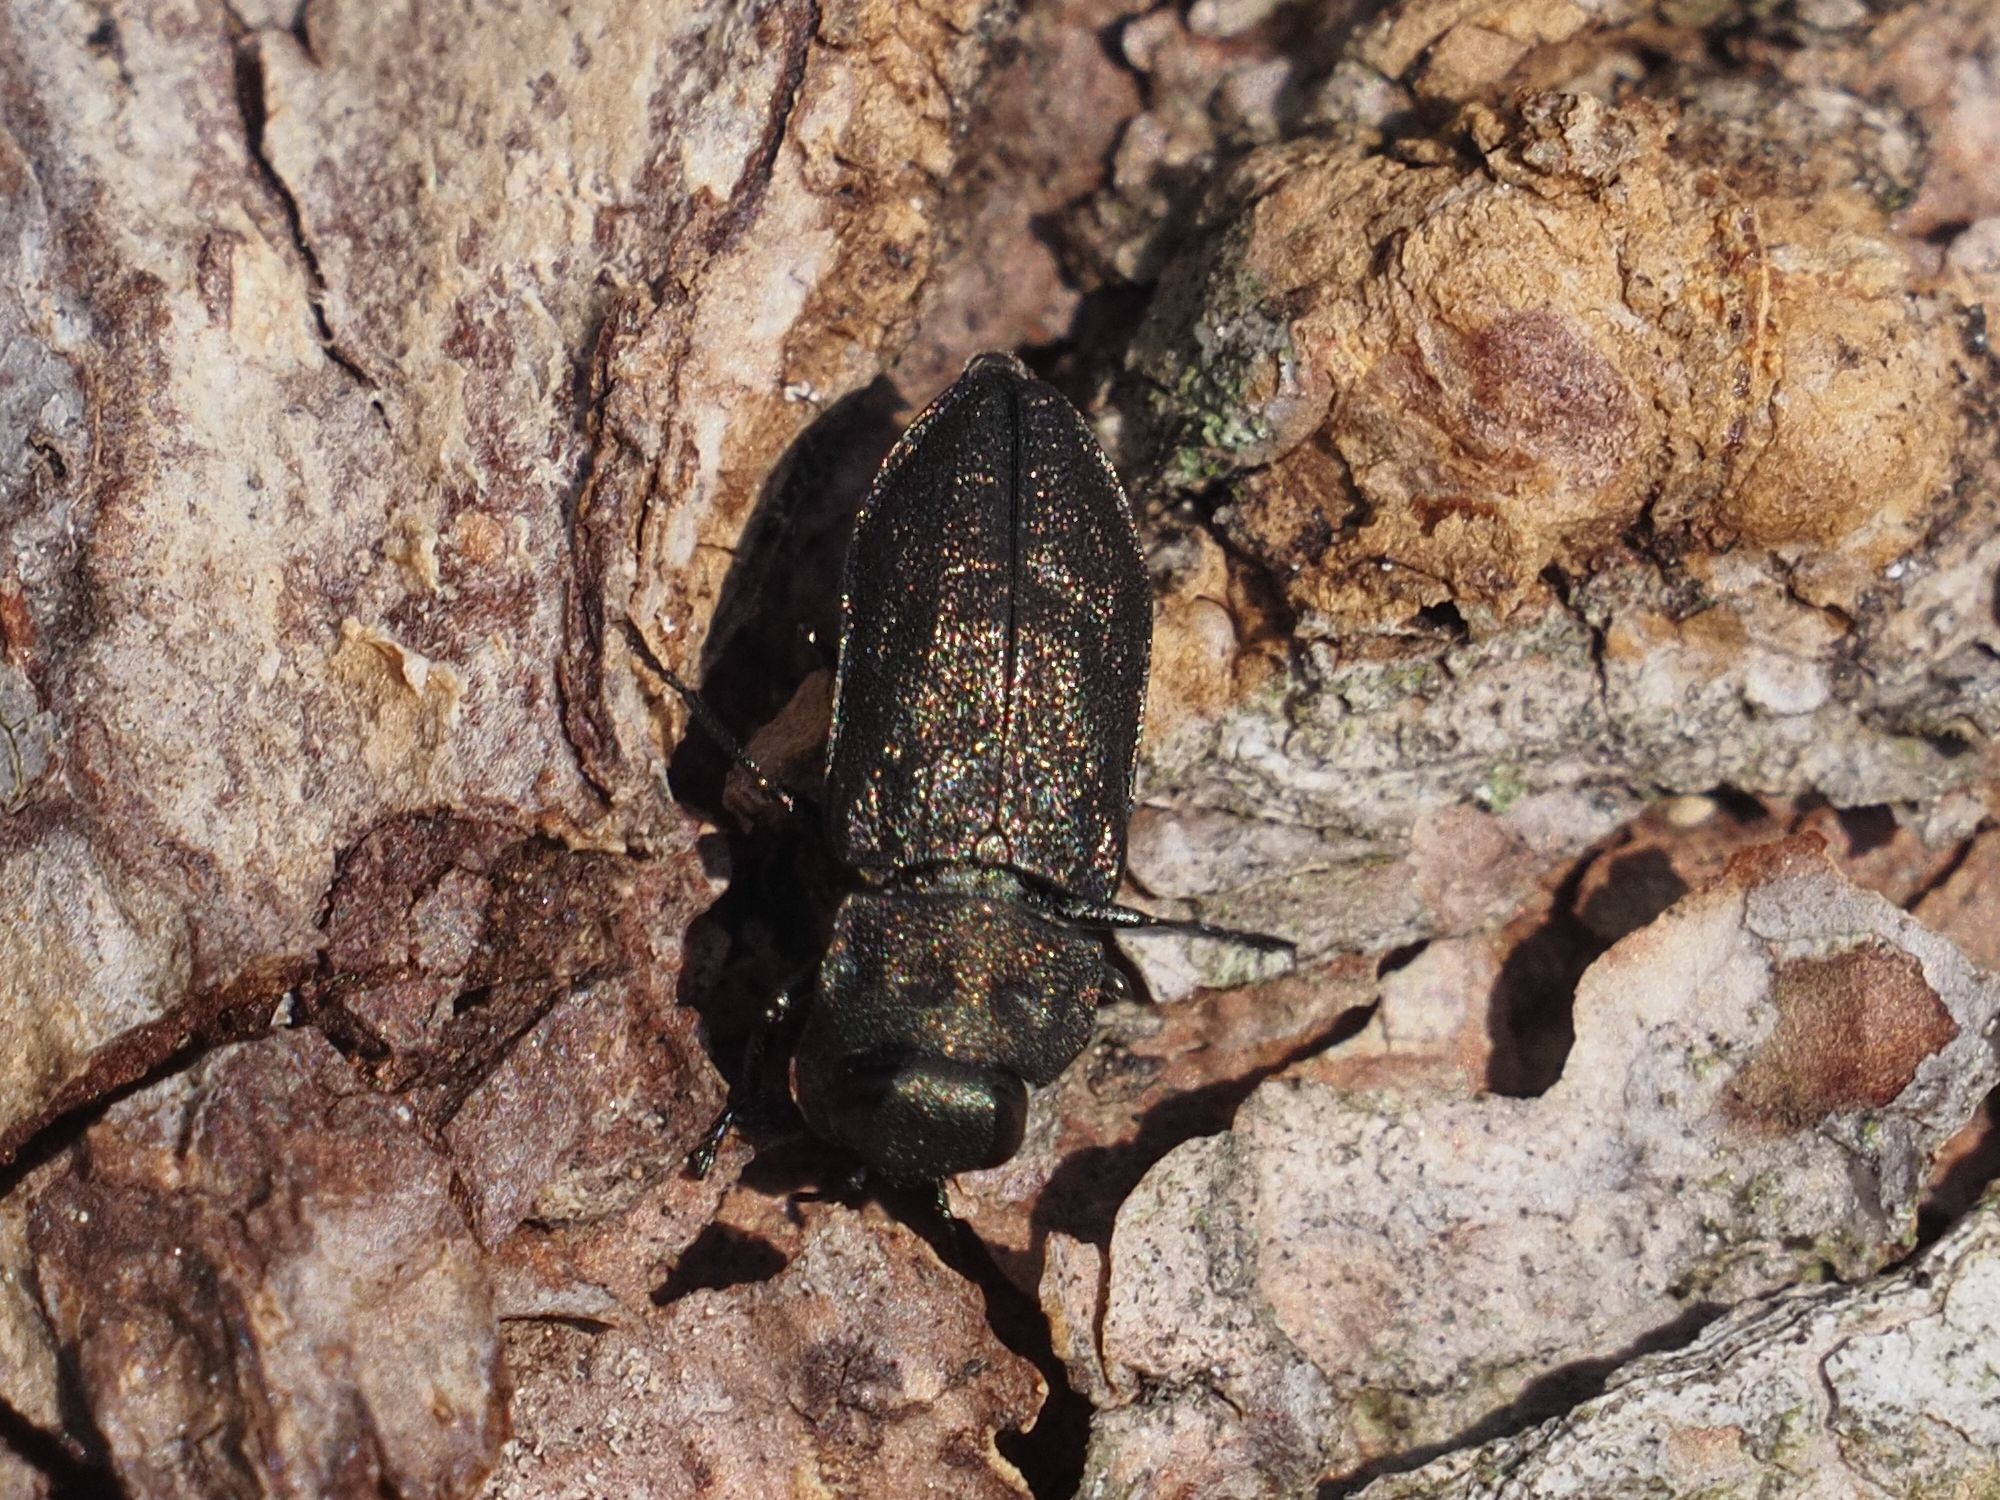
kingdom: Animalia
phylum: Arthropoda
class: Insecta
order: Coleoptera
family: Buprestidae
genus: Anthaxia
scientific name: Anthaxia quadripunctata
